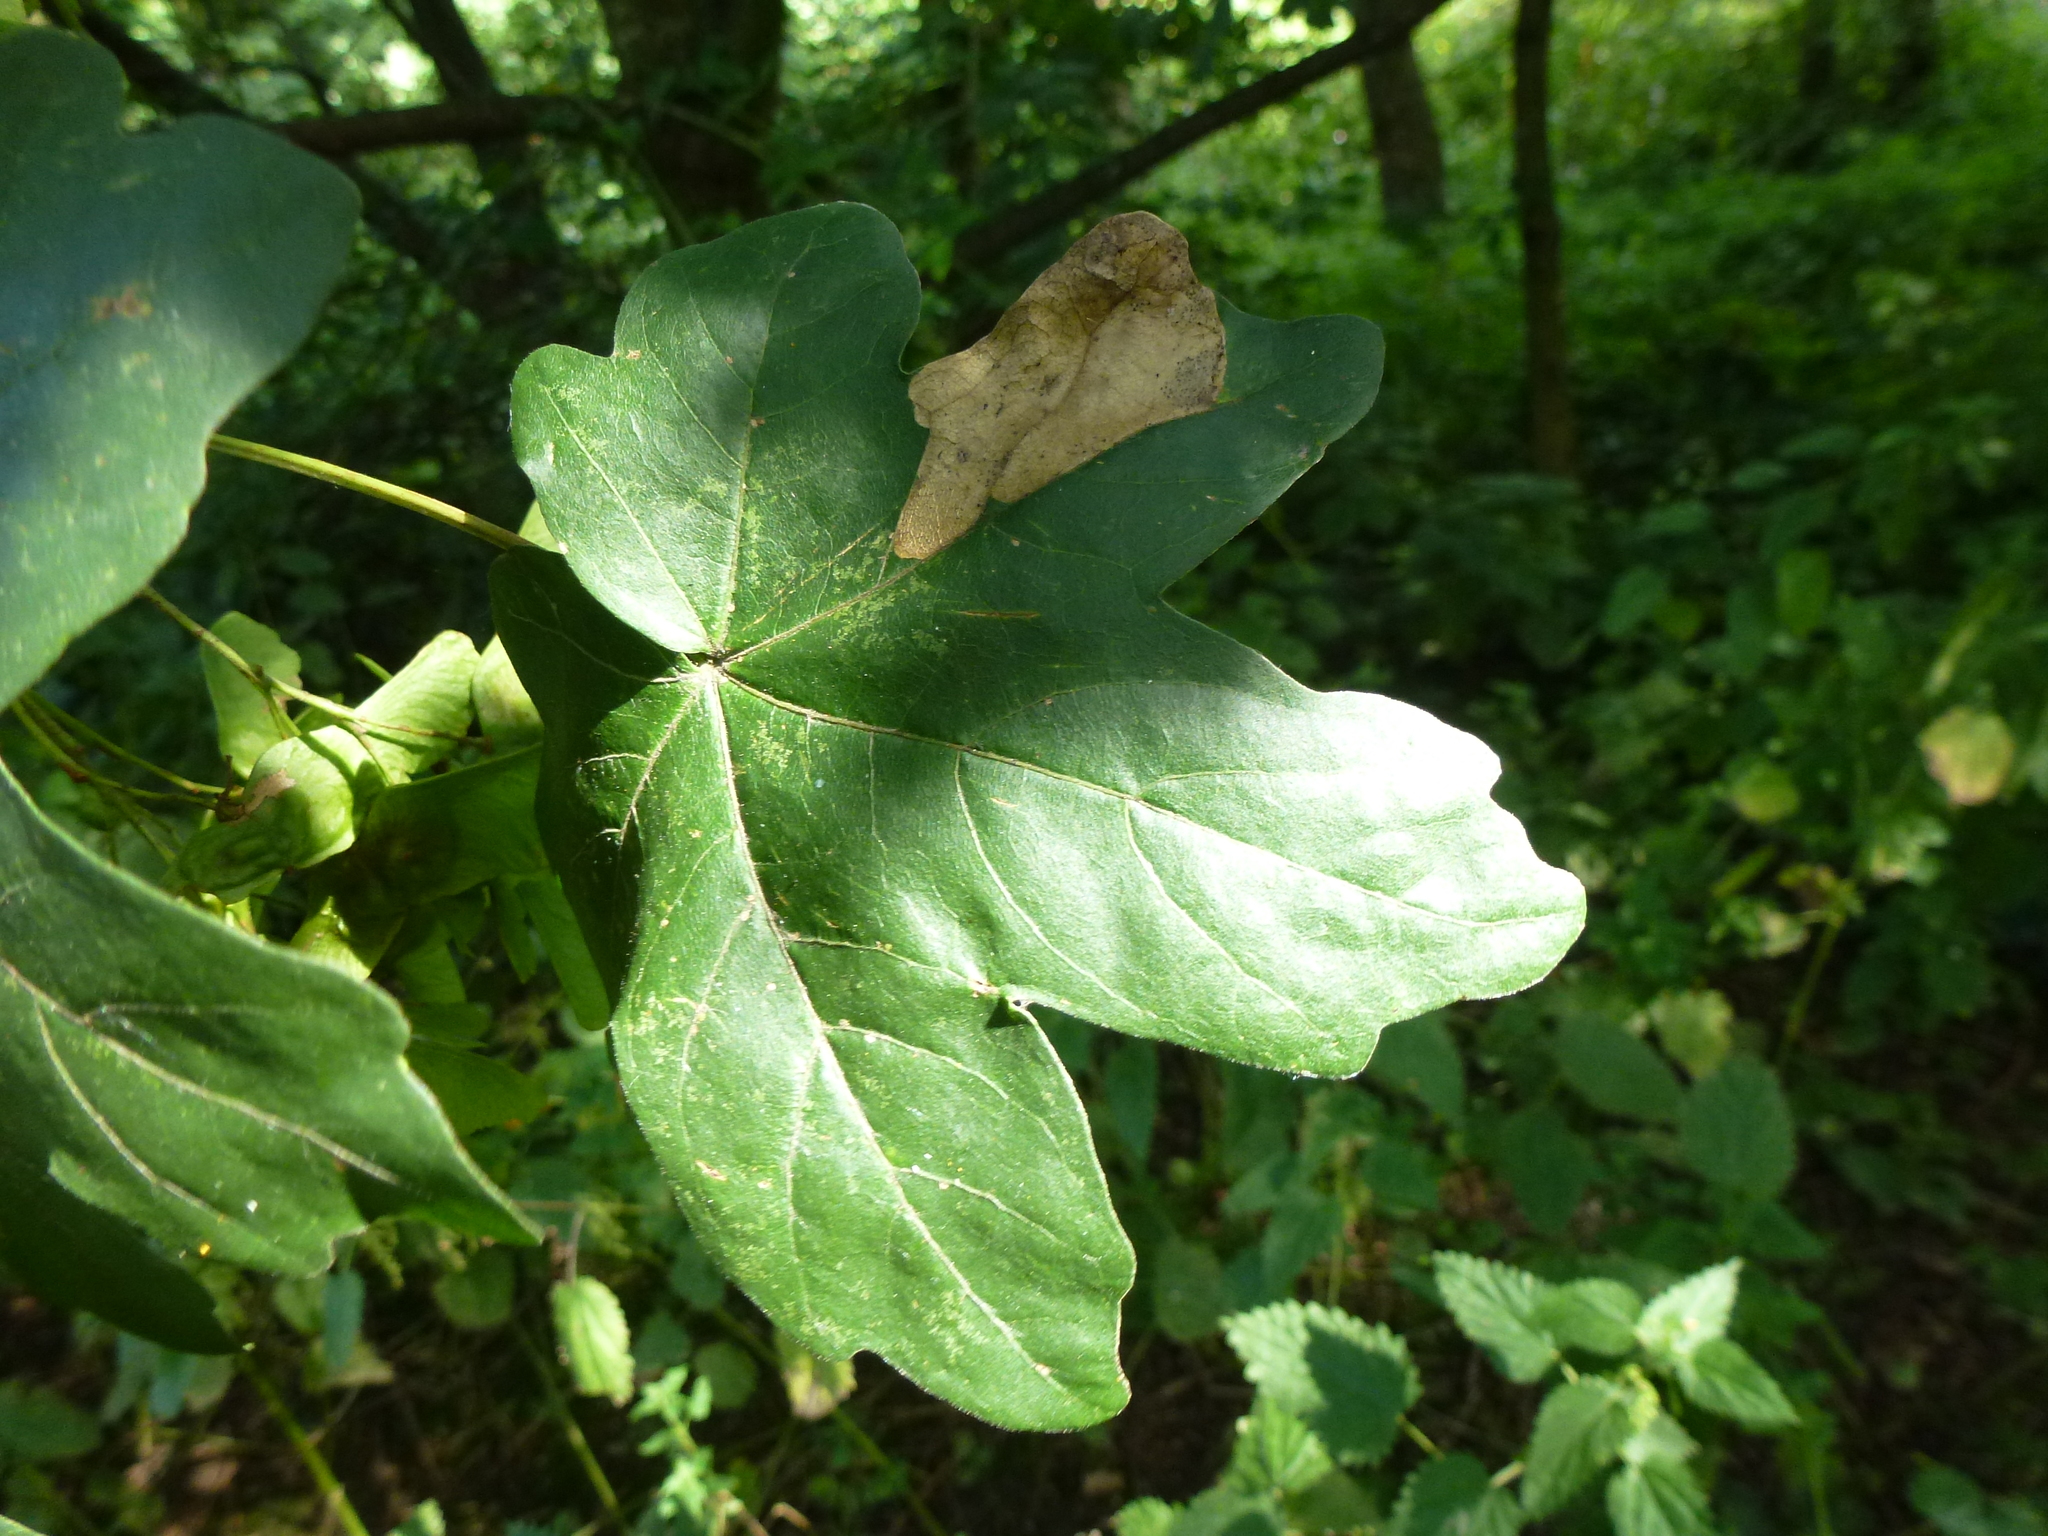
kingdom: Animalia
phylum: Arthropoda
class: Insecta
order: Hymenoptera
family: Tenthredinidae
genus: Heterarthrus
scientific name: Heterarthrus wuestneii
